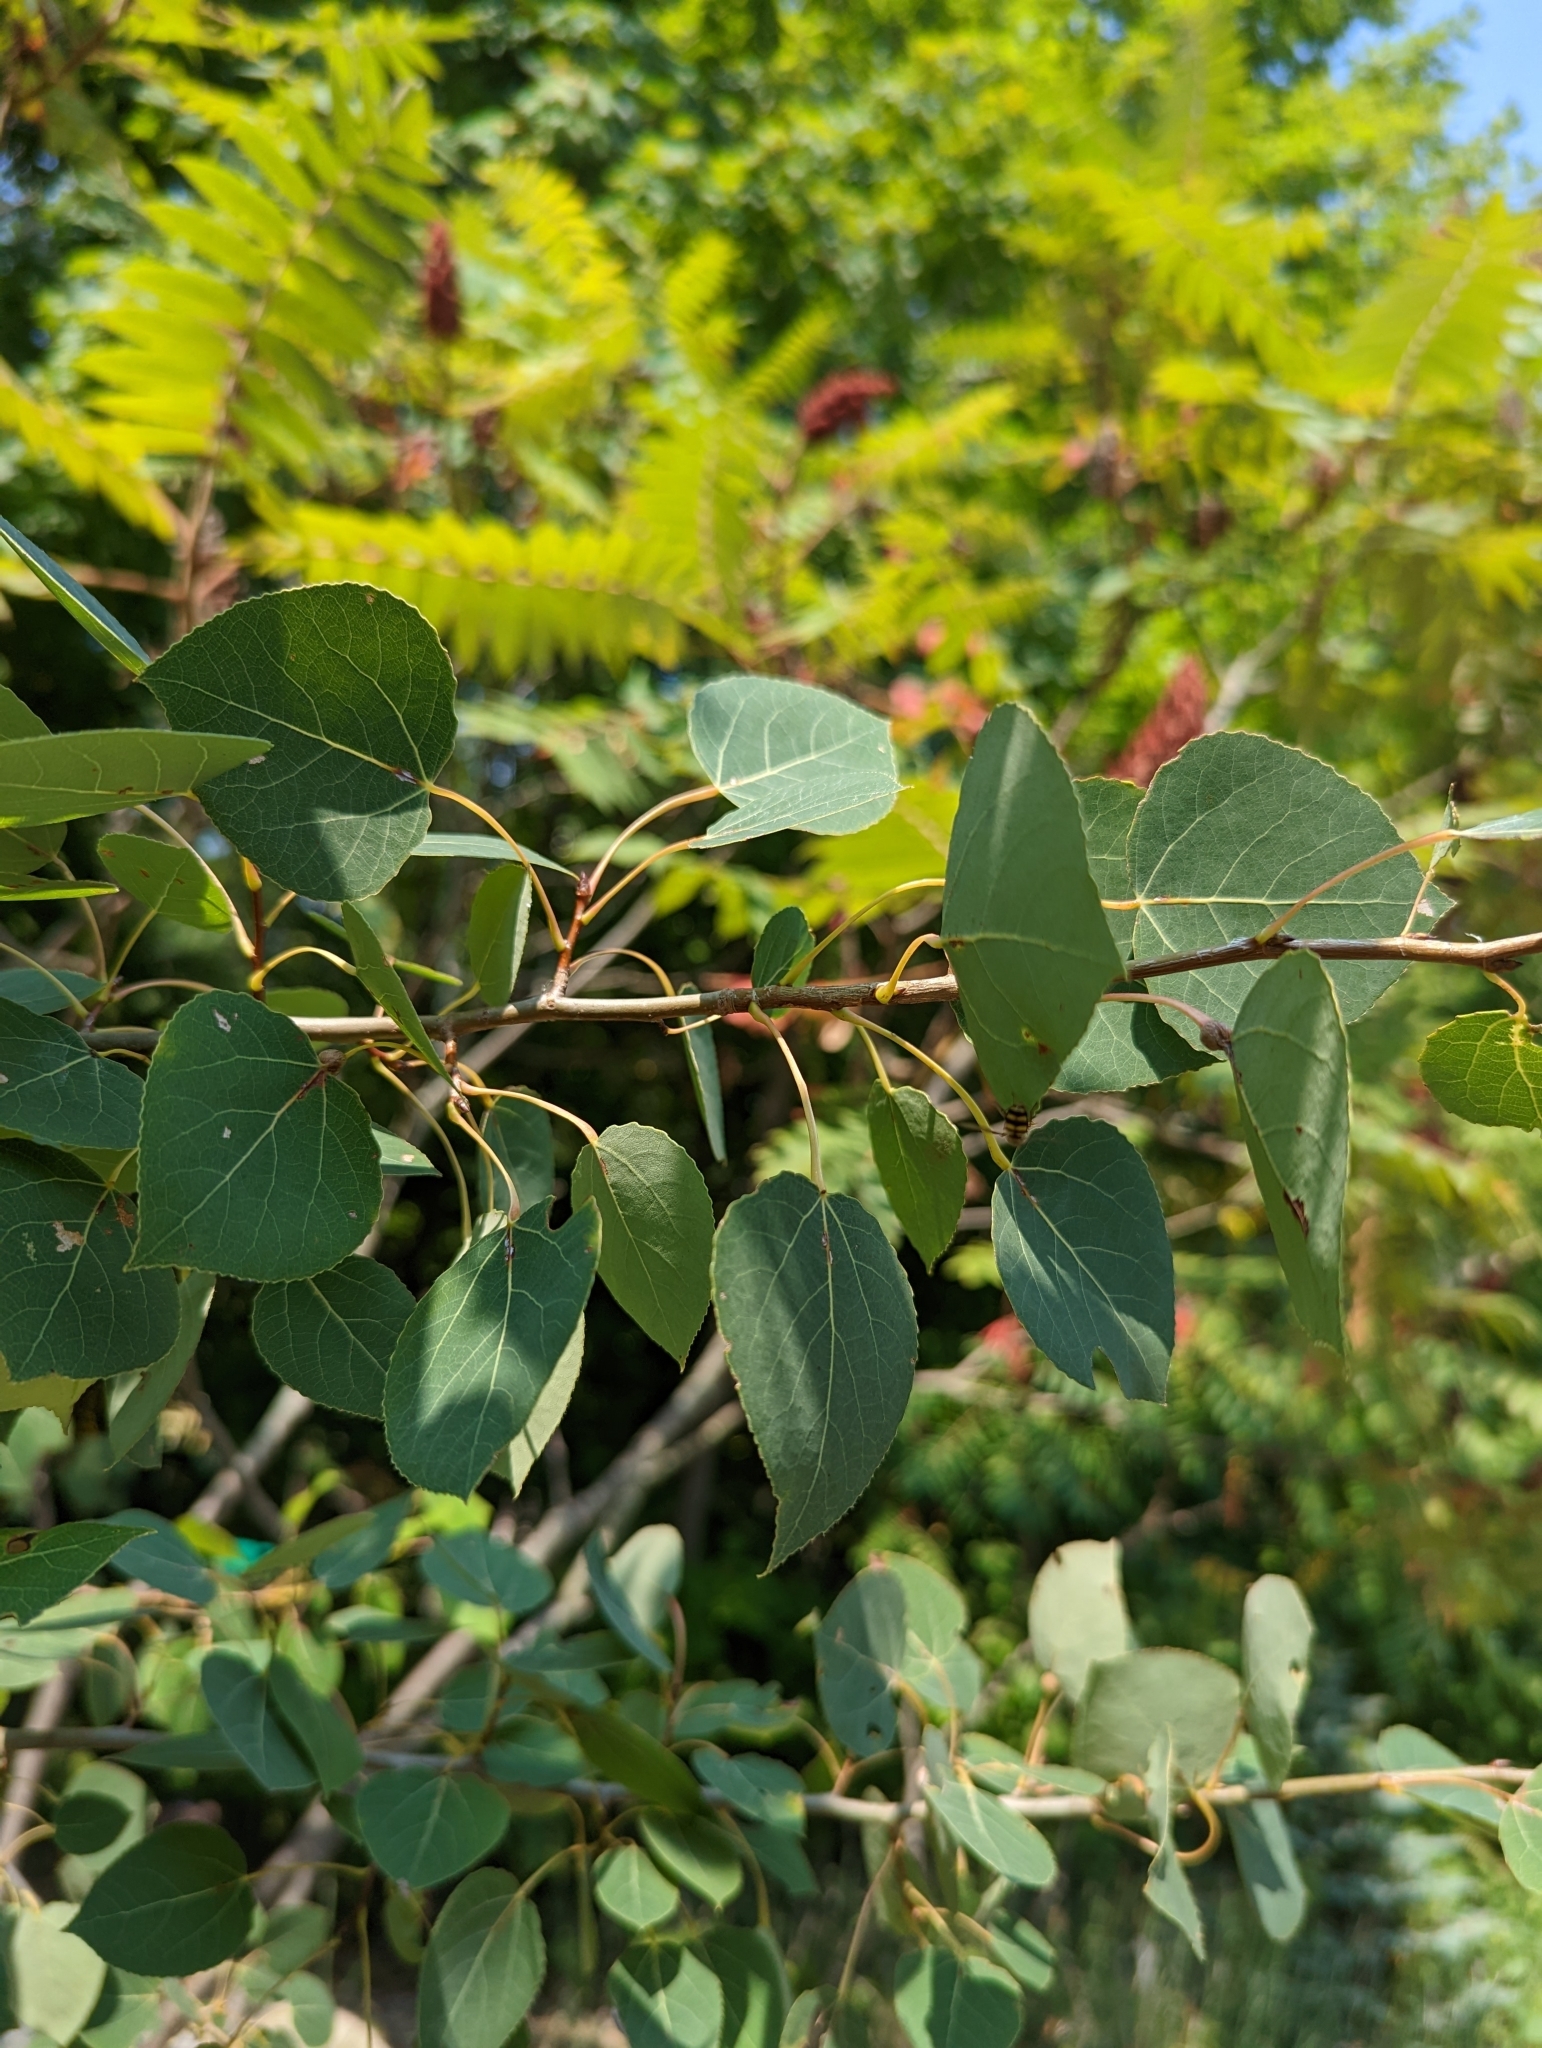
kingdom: Plantae
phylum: Tracheophyta
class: Magnoliopsida
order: Malpighiales
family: Salicaceae
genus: Populus
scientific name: Populus tremuloides
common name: Quaking aspen
